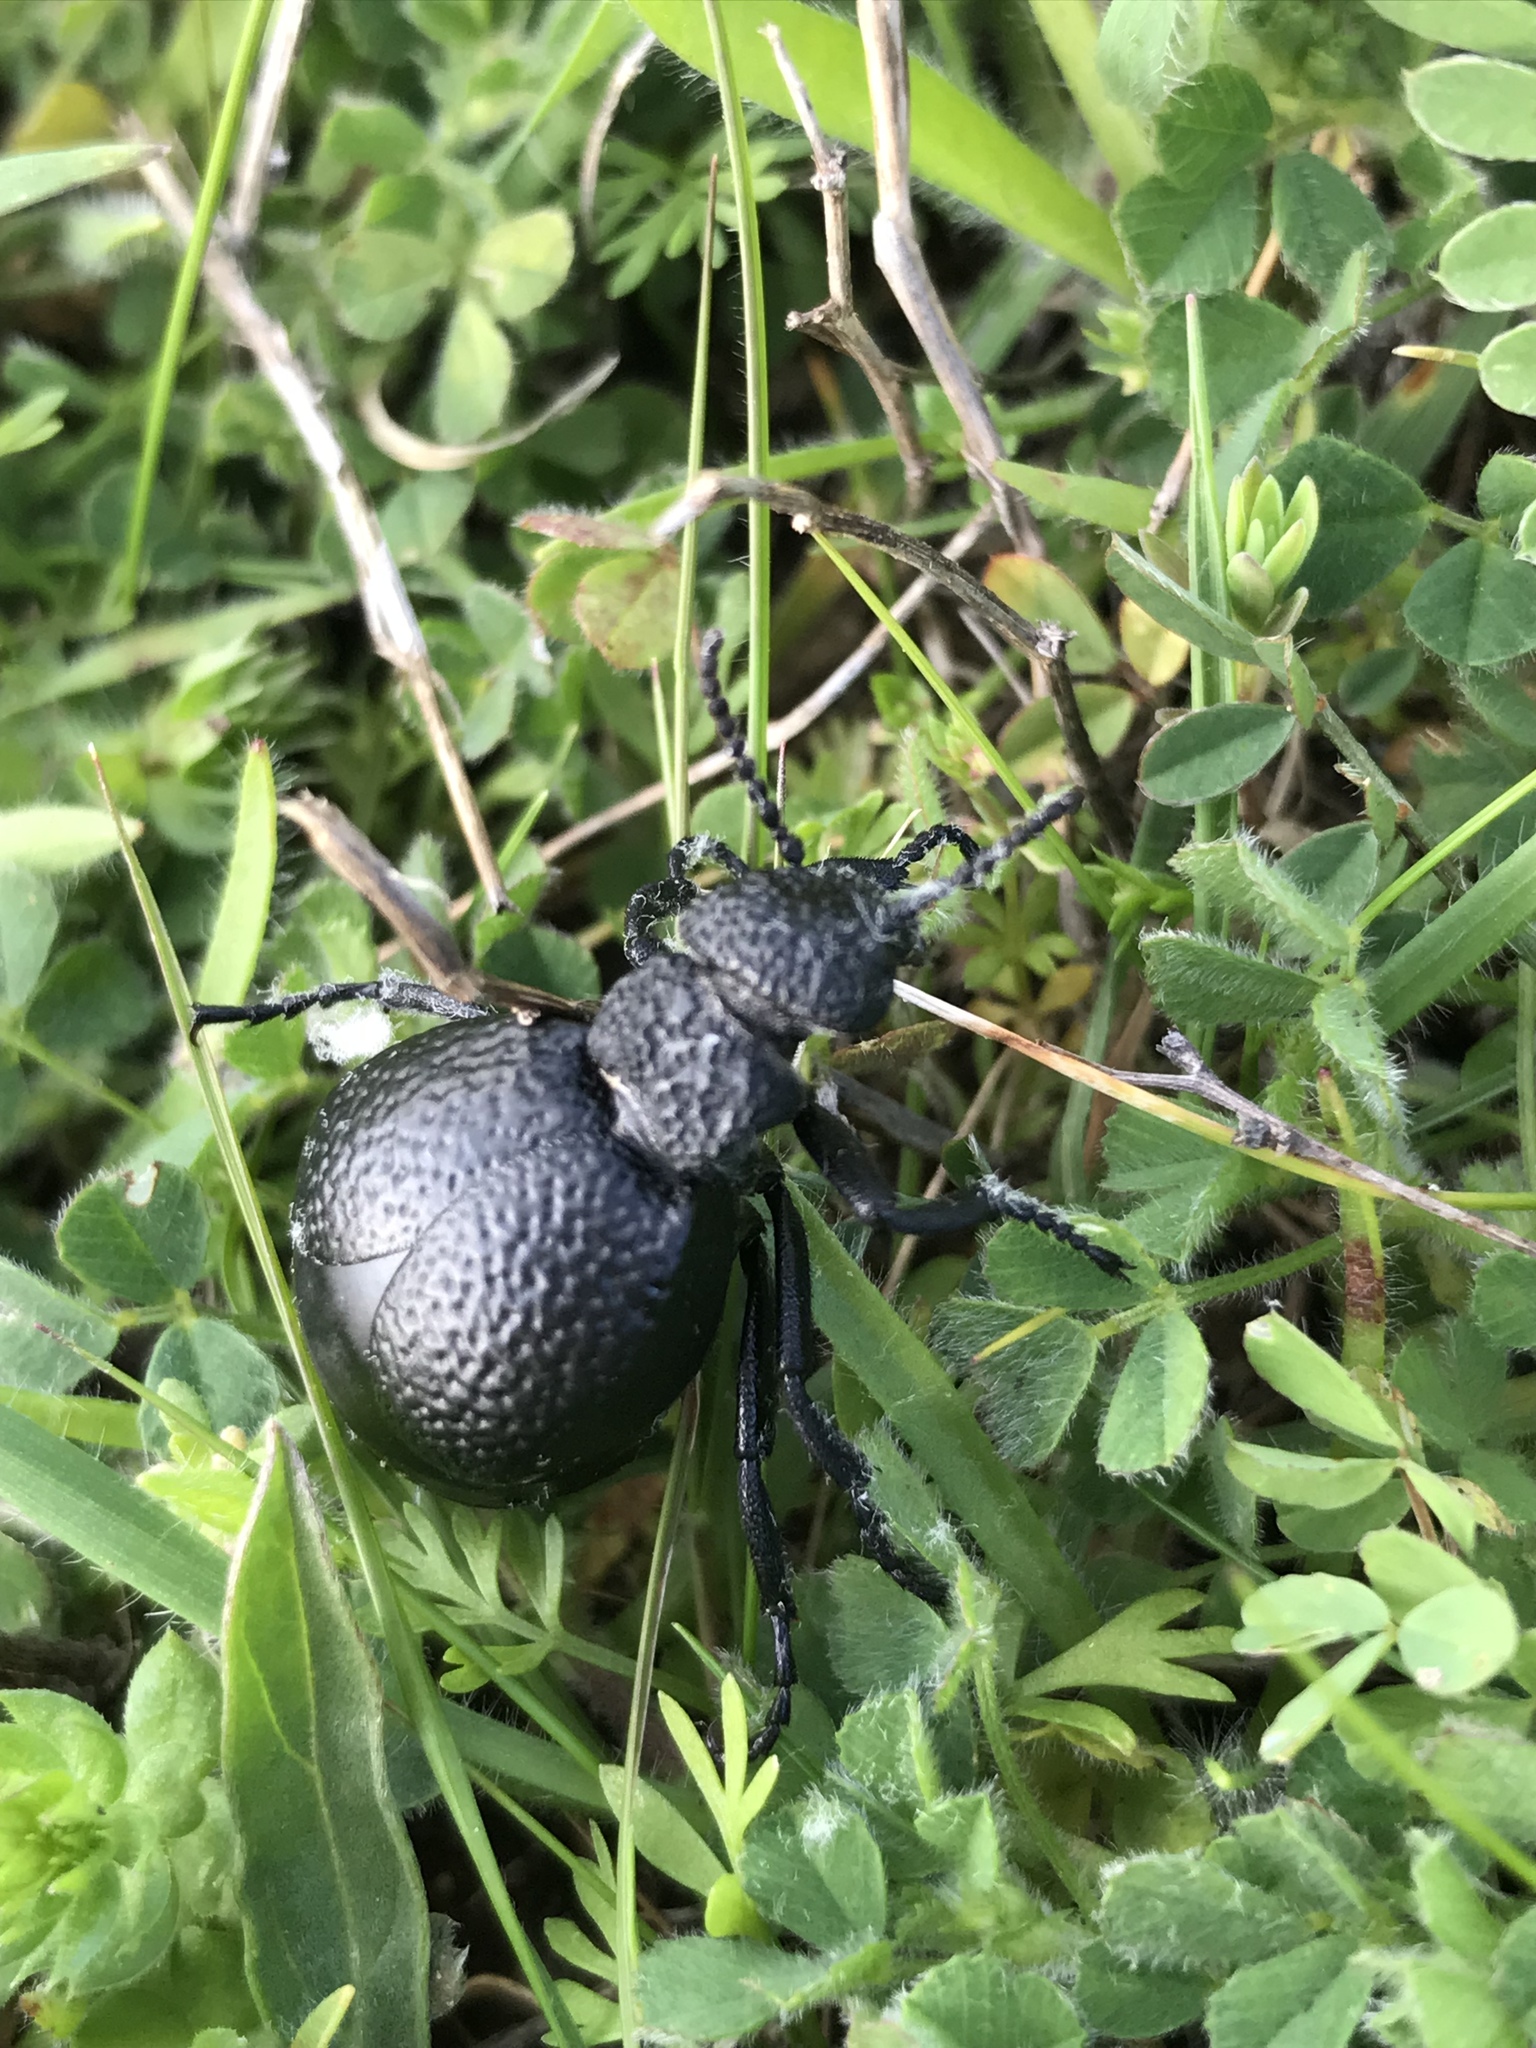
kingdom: Animalia
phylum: Arthropoda
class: Insecta
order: Coleoptera
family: Meloidae
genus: Meloe
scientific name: Meloe tuccius
